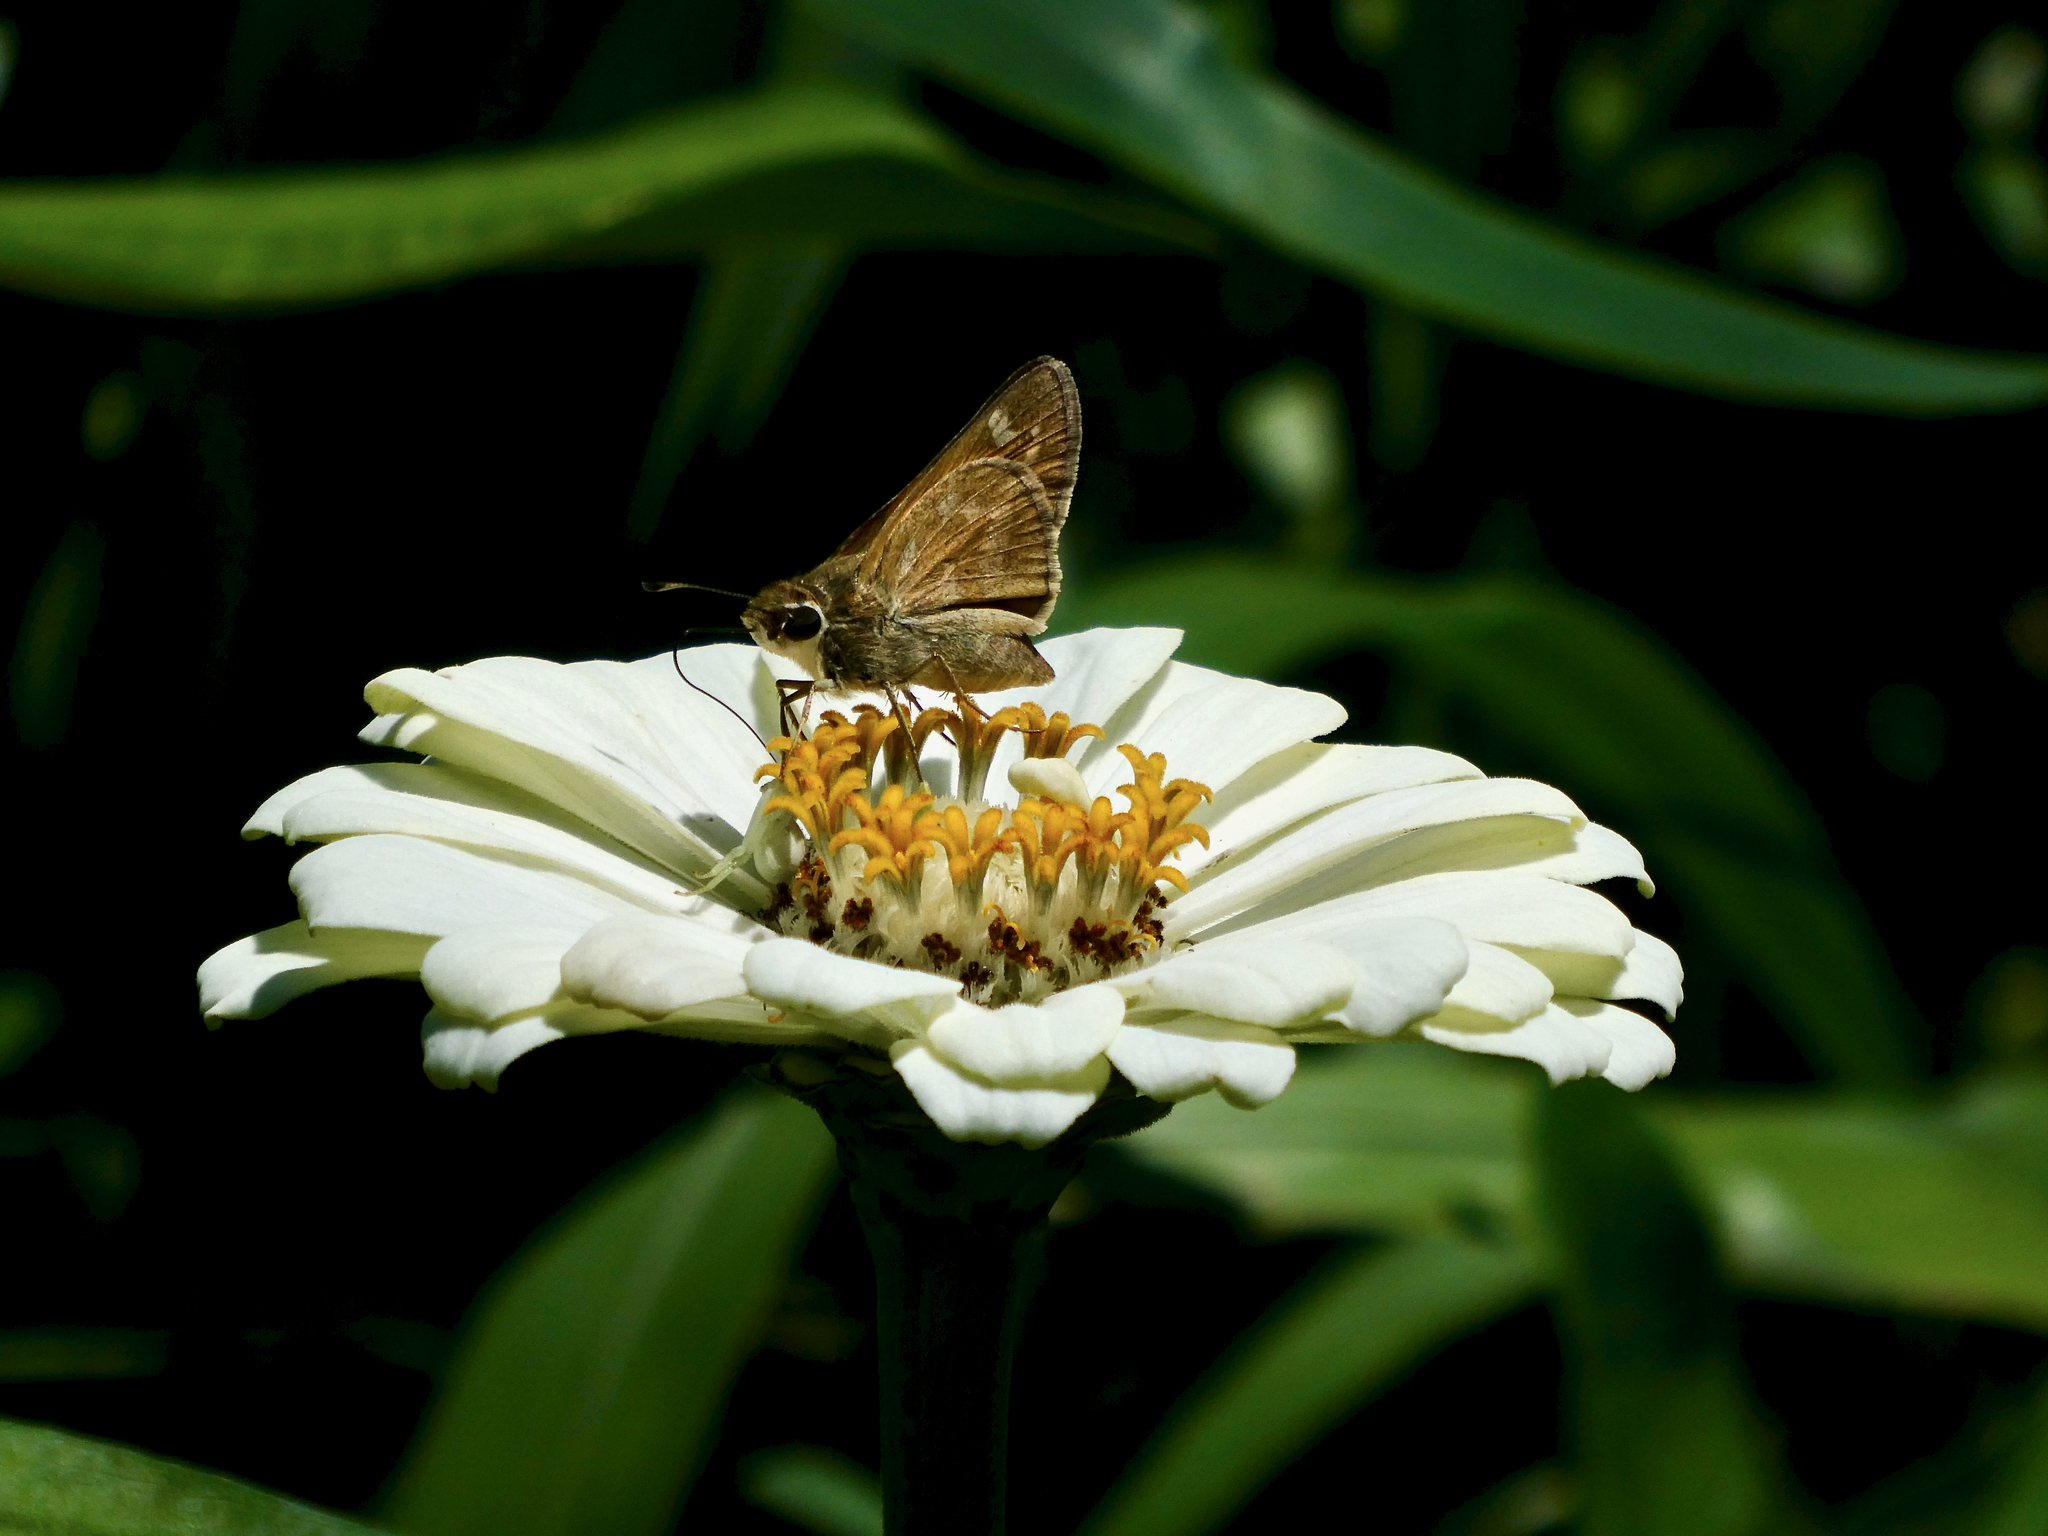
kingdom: Animalia
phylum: Arthropoda
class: Insecta
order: Lepidoptera
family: Hesperiidae
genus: Atalopedes
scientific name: Atalopedes
